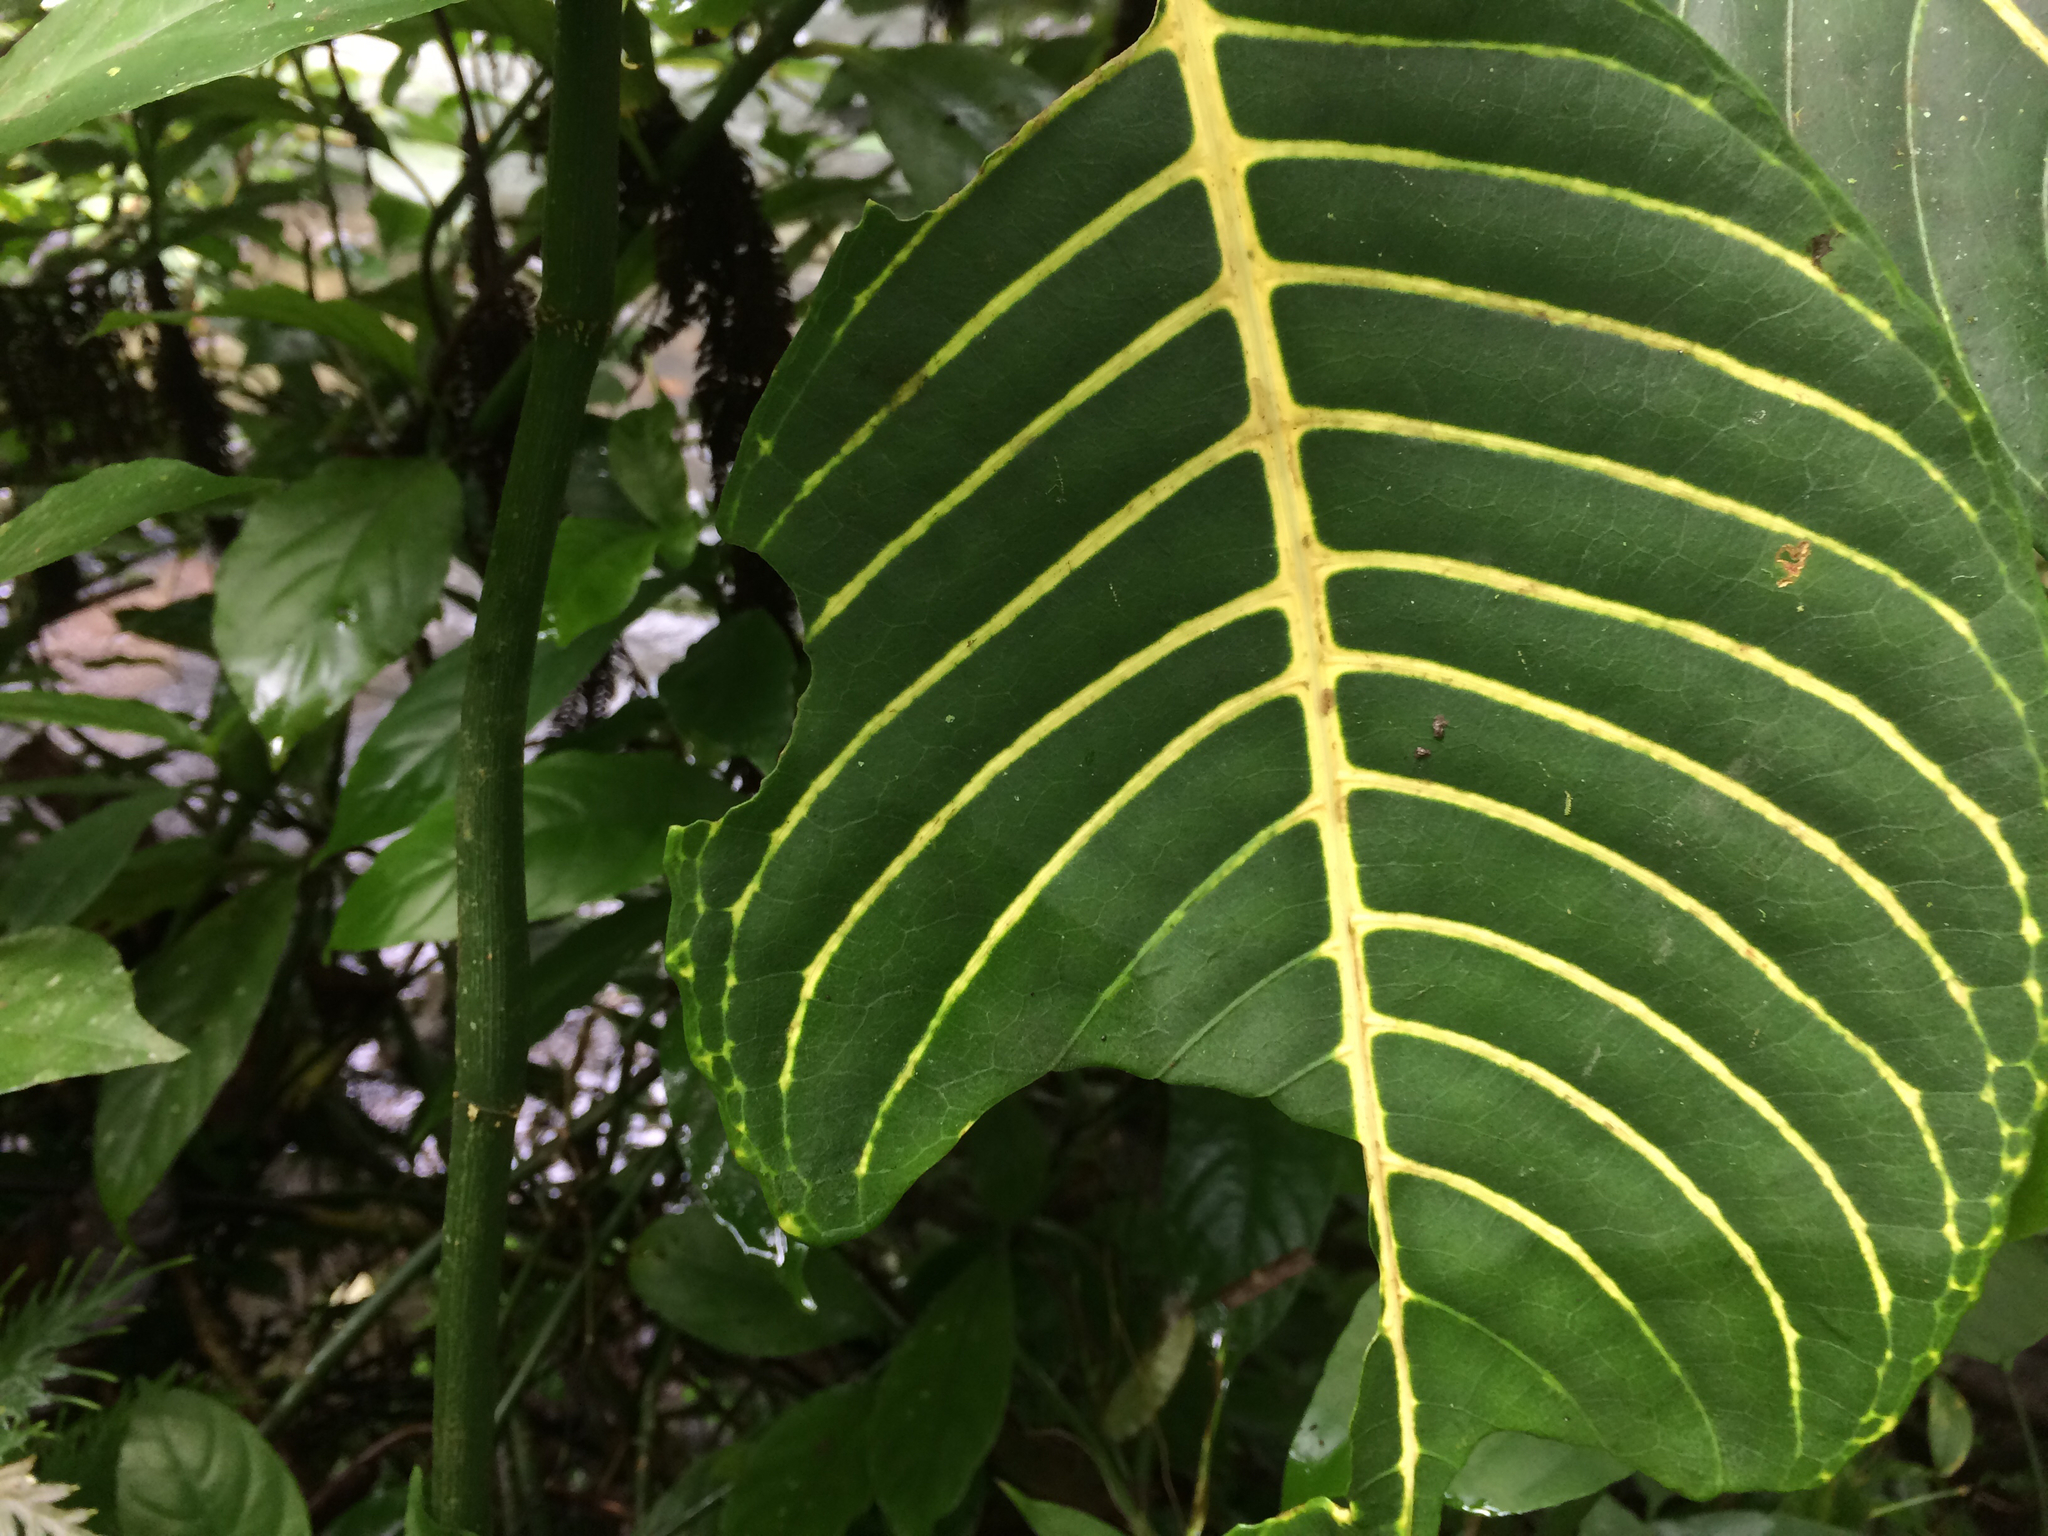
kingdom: Plantae
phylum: Tracheophyta
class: Magnoliopsida
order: Lamiales
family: Acanthaceae
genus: Sanchezia
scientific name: Sanchezia parvibracteata
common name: Sanchezia
